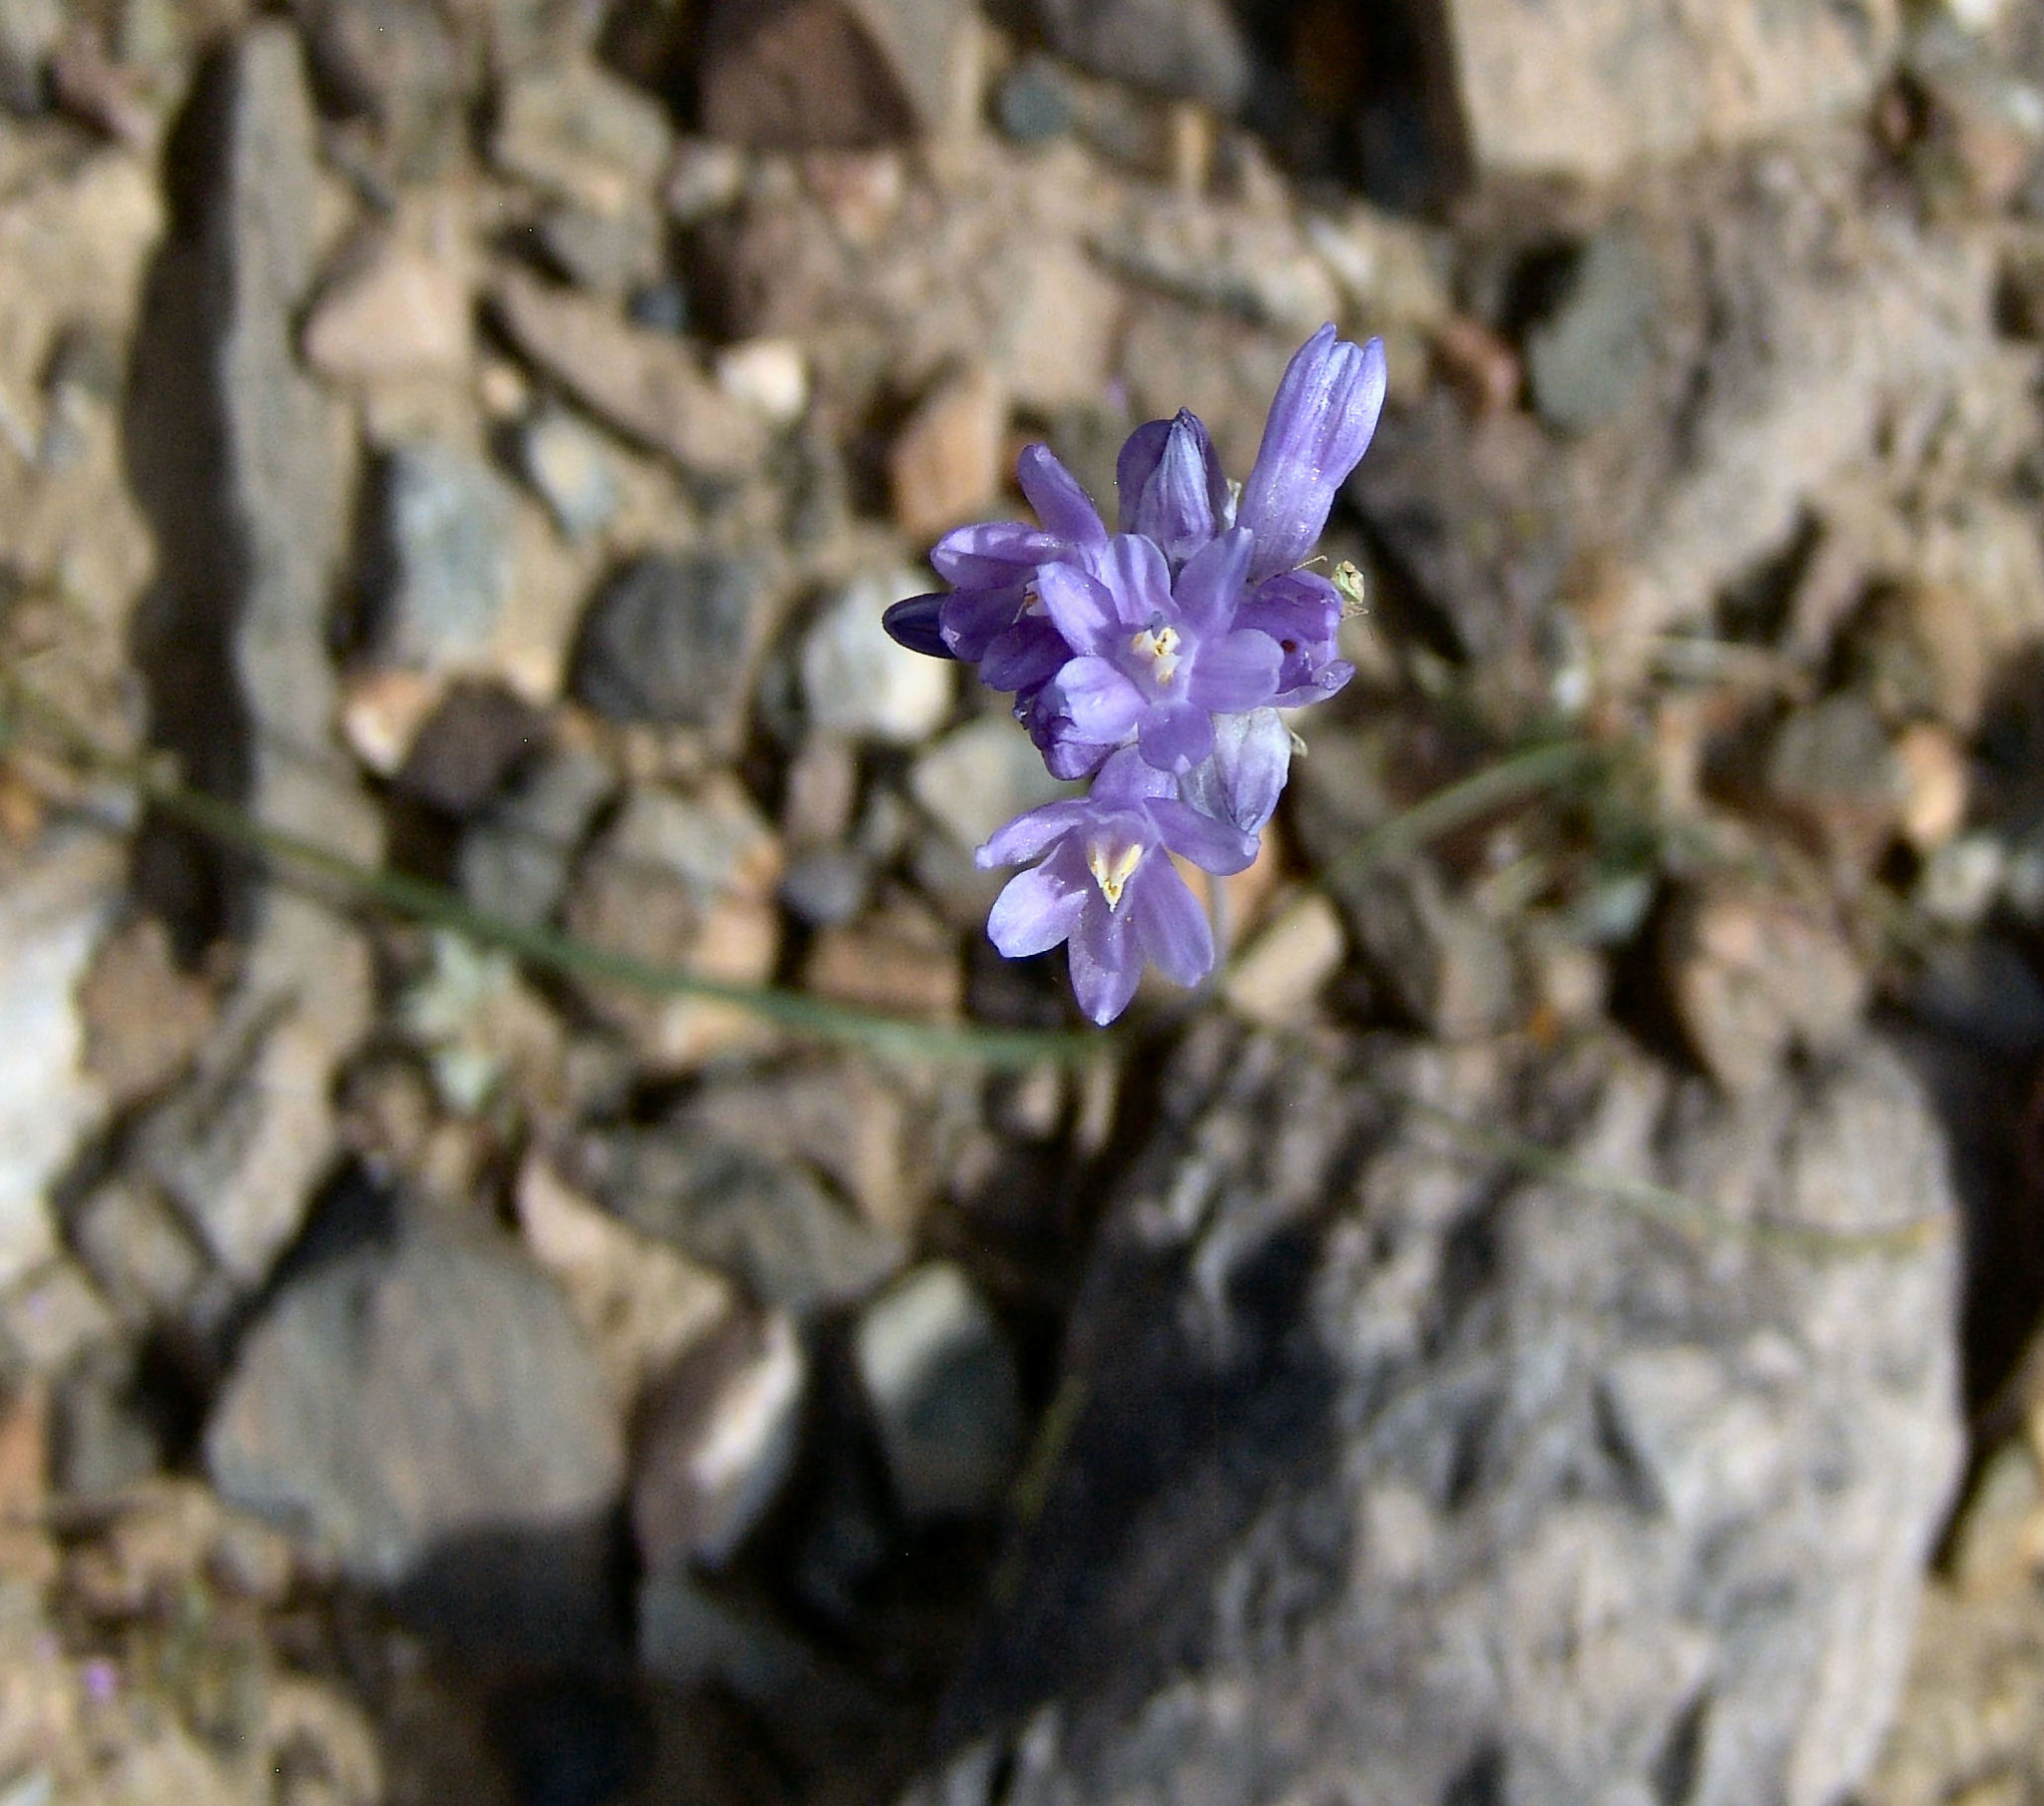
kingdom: Plantae
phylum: Tracheophyta
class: Liliopsida
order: Asparagales
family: Asparagaceae
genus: Dipterostemon
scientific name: Dipterostemon capitatus
